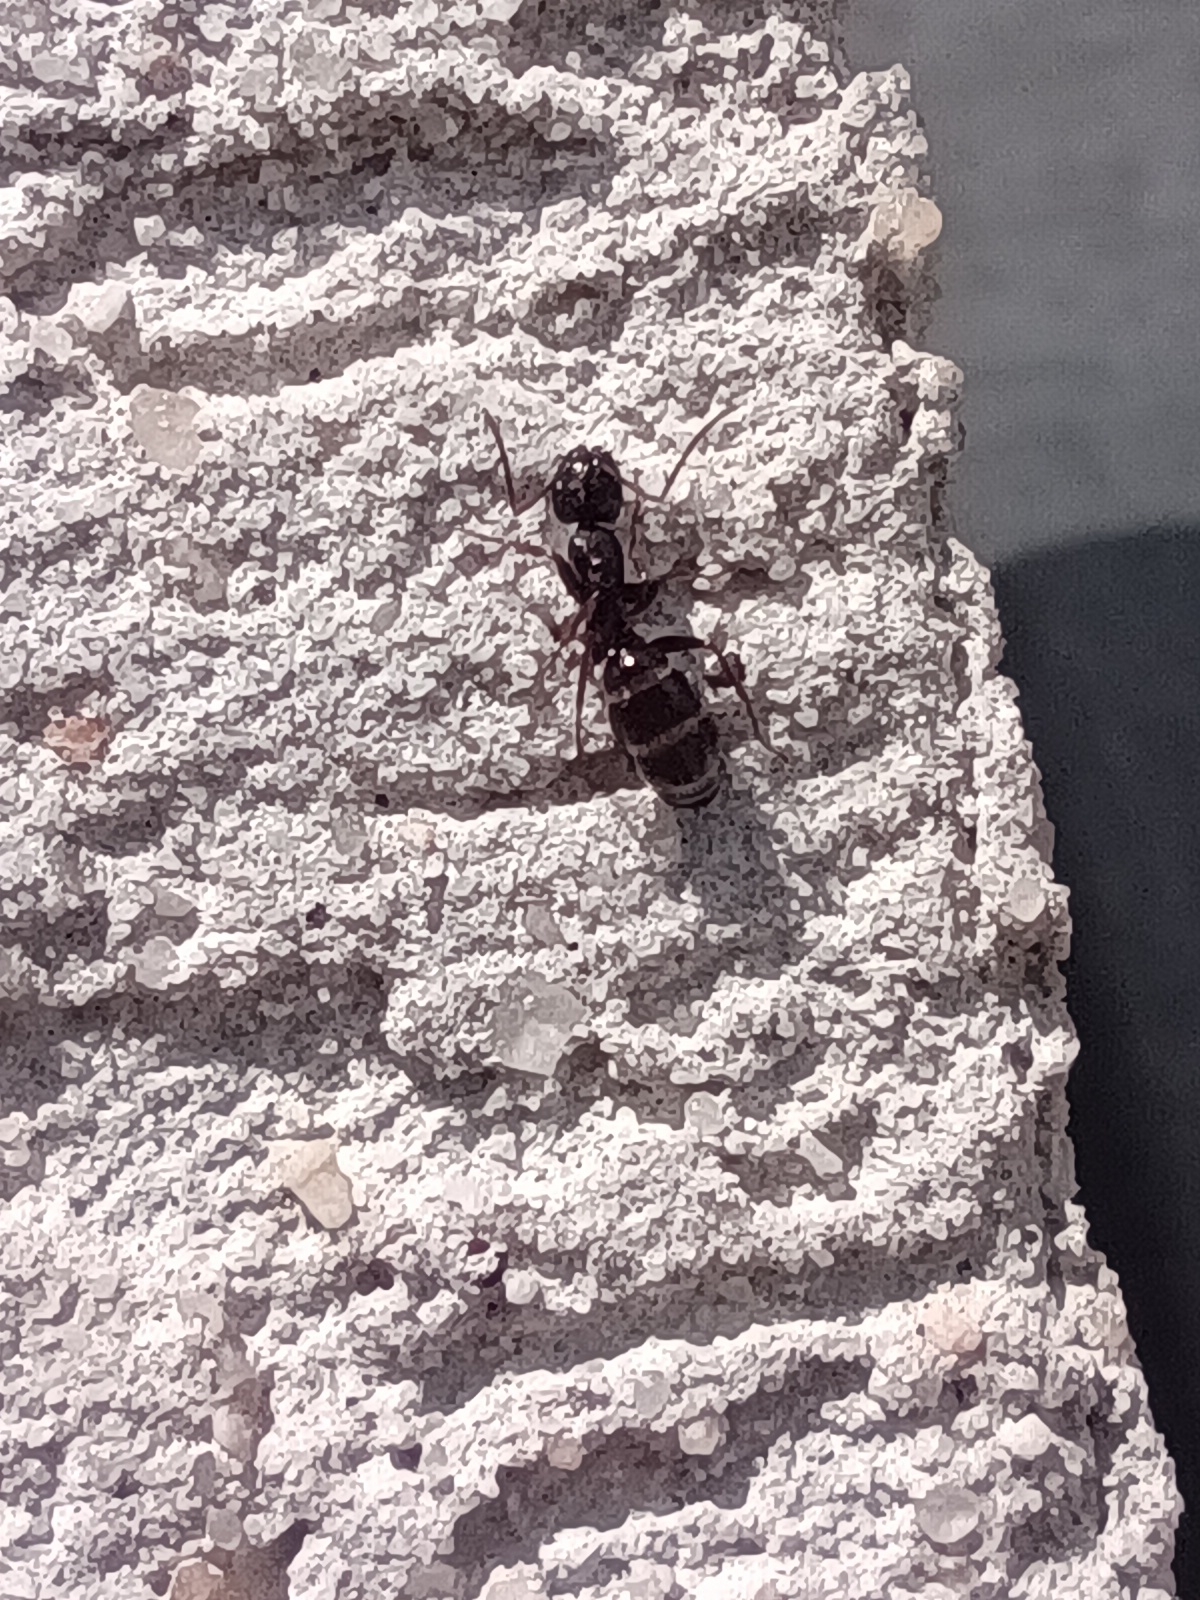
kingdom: Animalia
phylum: Arthropoda
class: Insecta
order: Hymenoptera
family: Formicidae
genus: Camponotus
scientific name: Camponotus fallax
